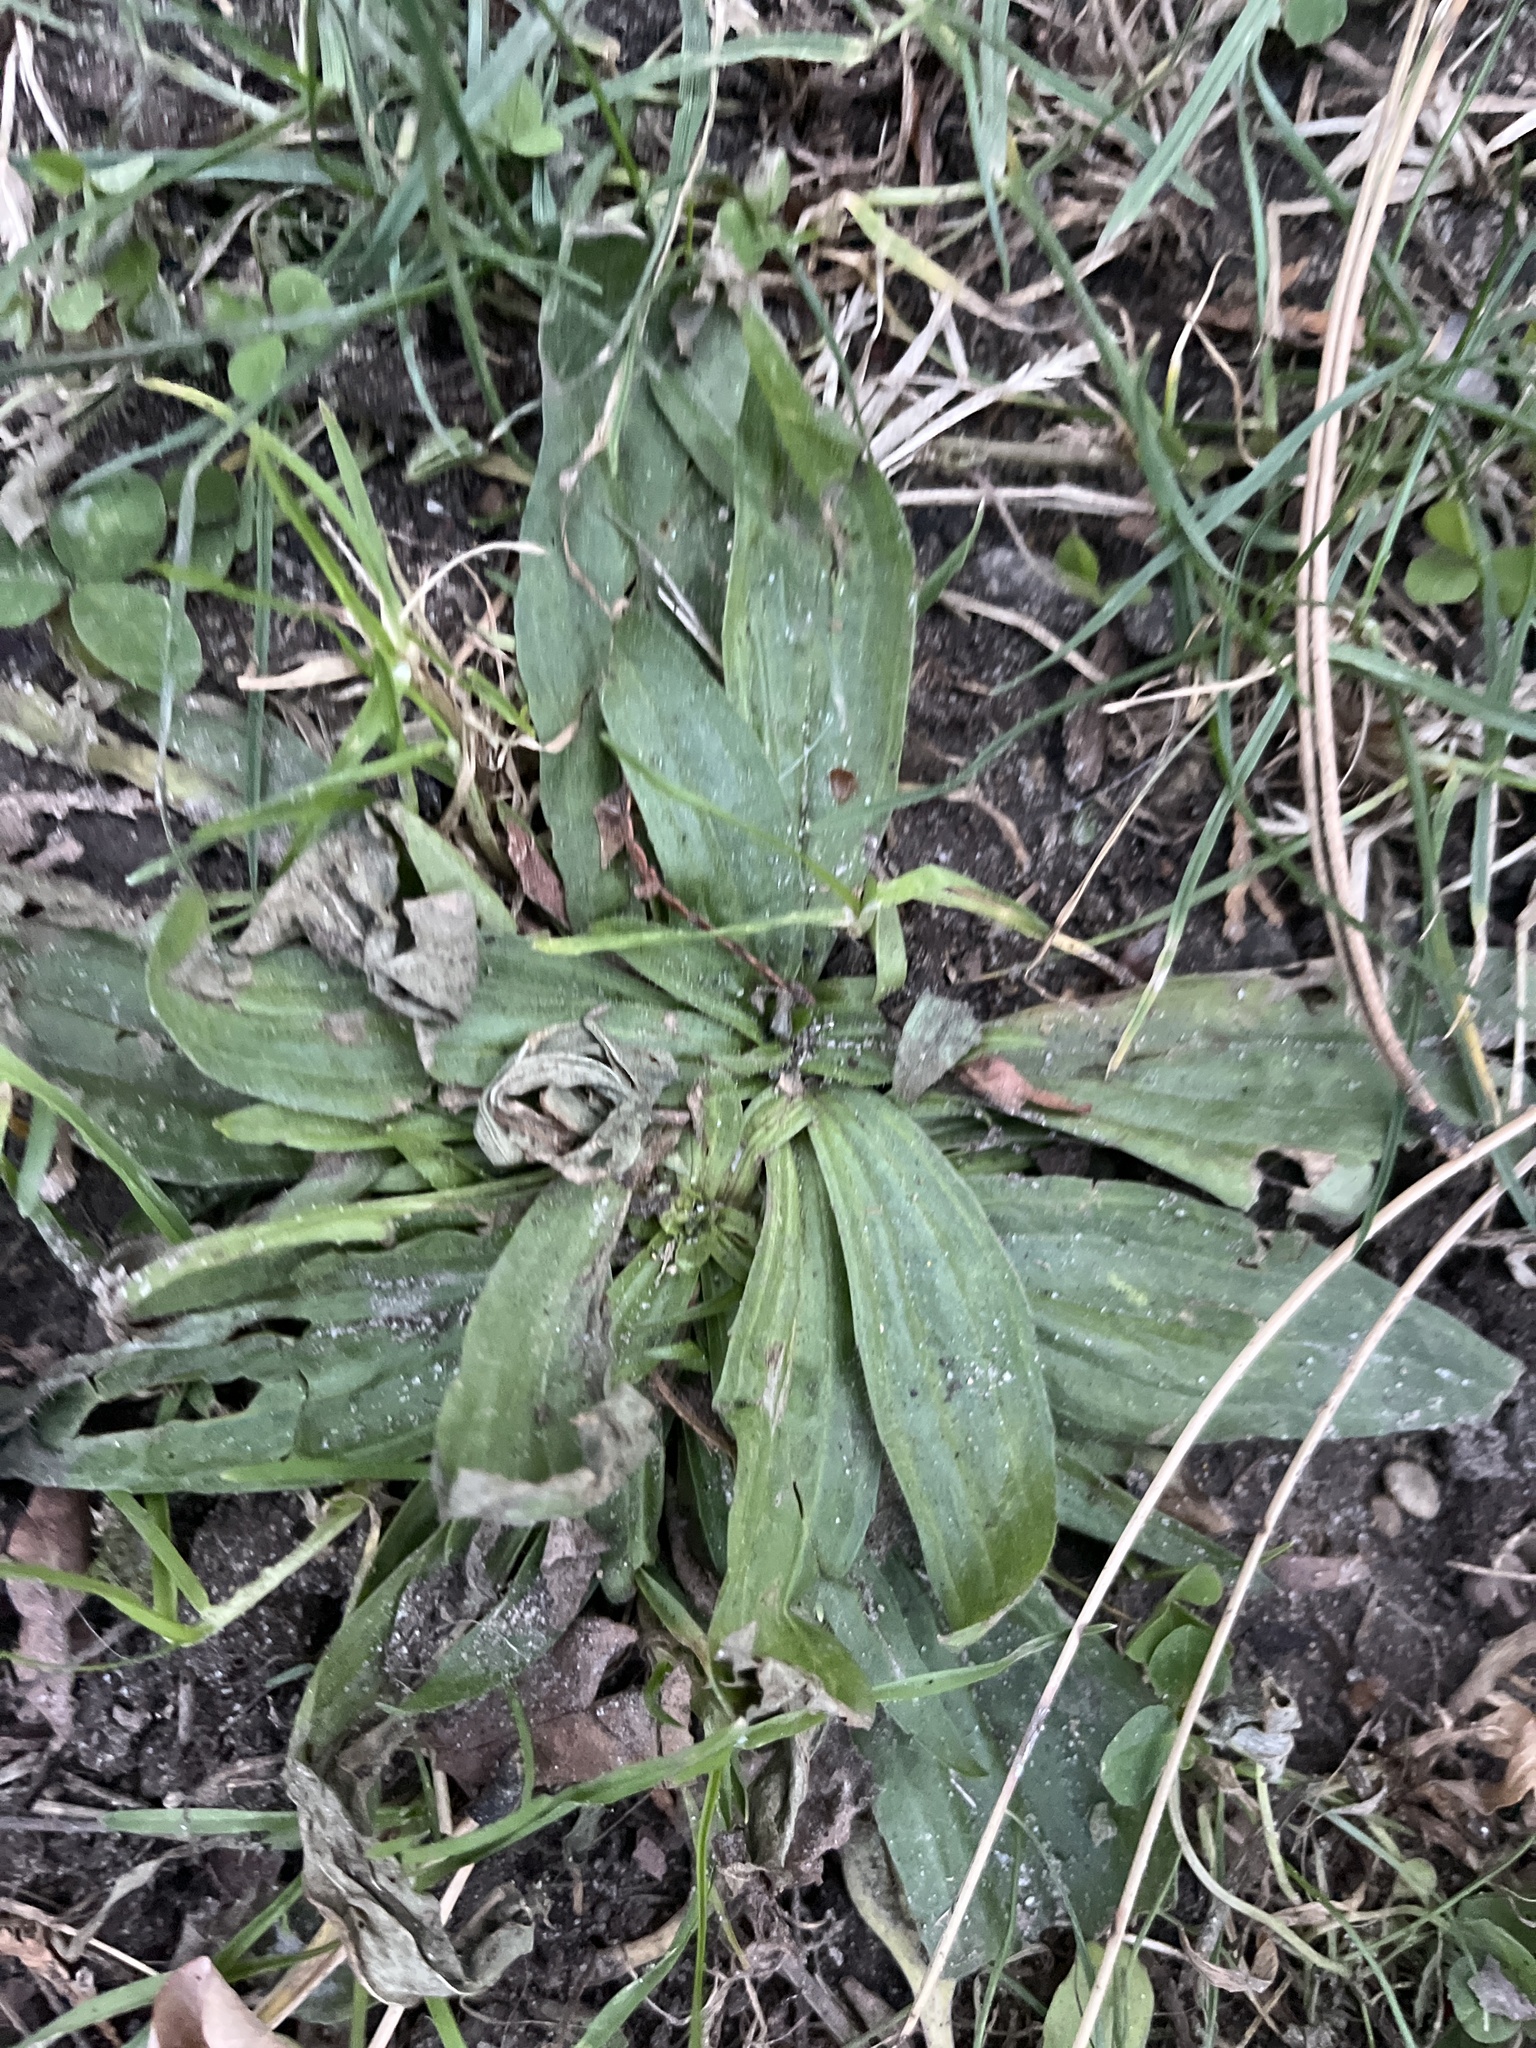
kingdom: Plantae
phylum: Tracheophyta
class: Magnoliopsida
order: Lamiales
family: Plantaginaceae
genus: Plantago
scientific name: Plantago lanceolata
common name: Ribwort plantain
